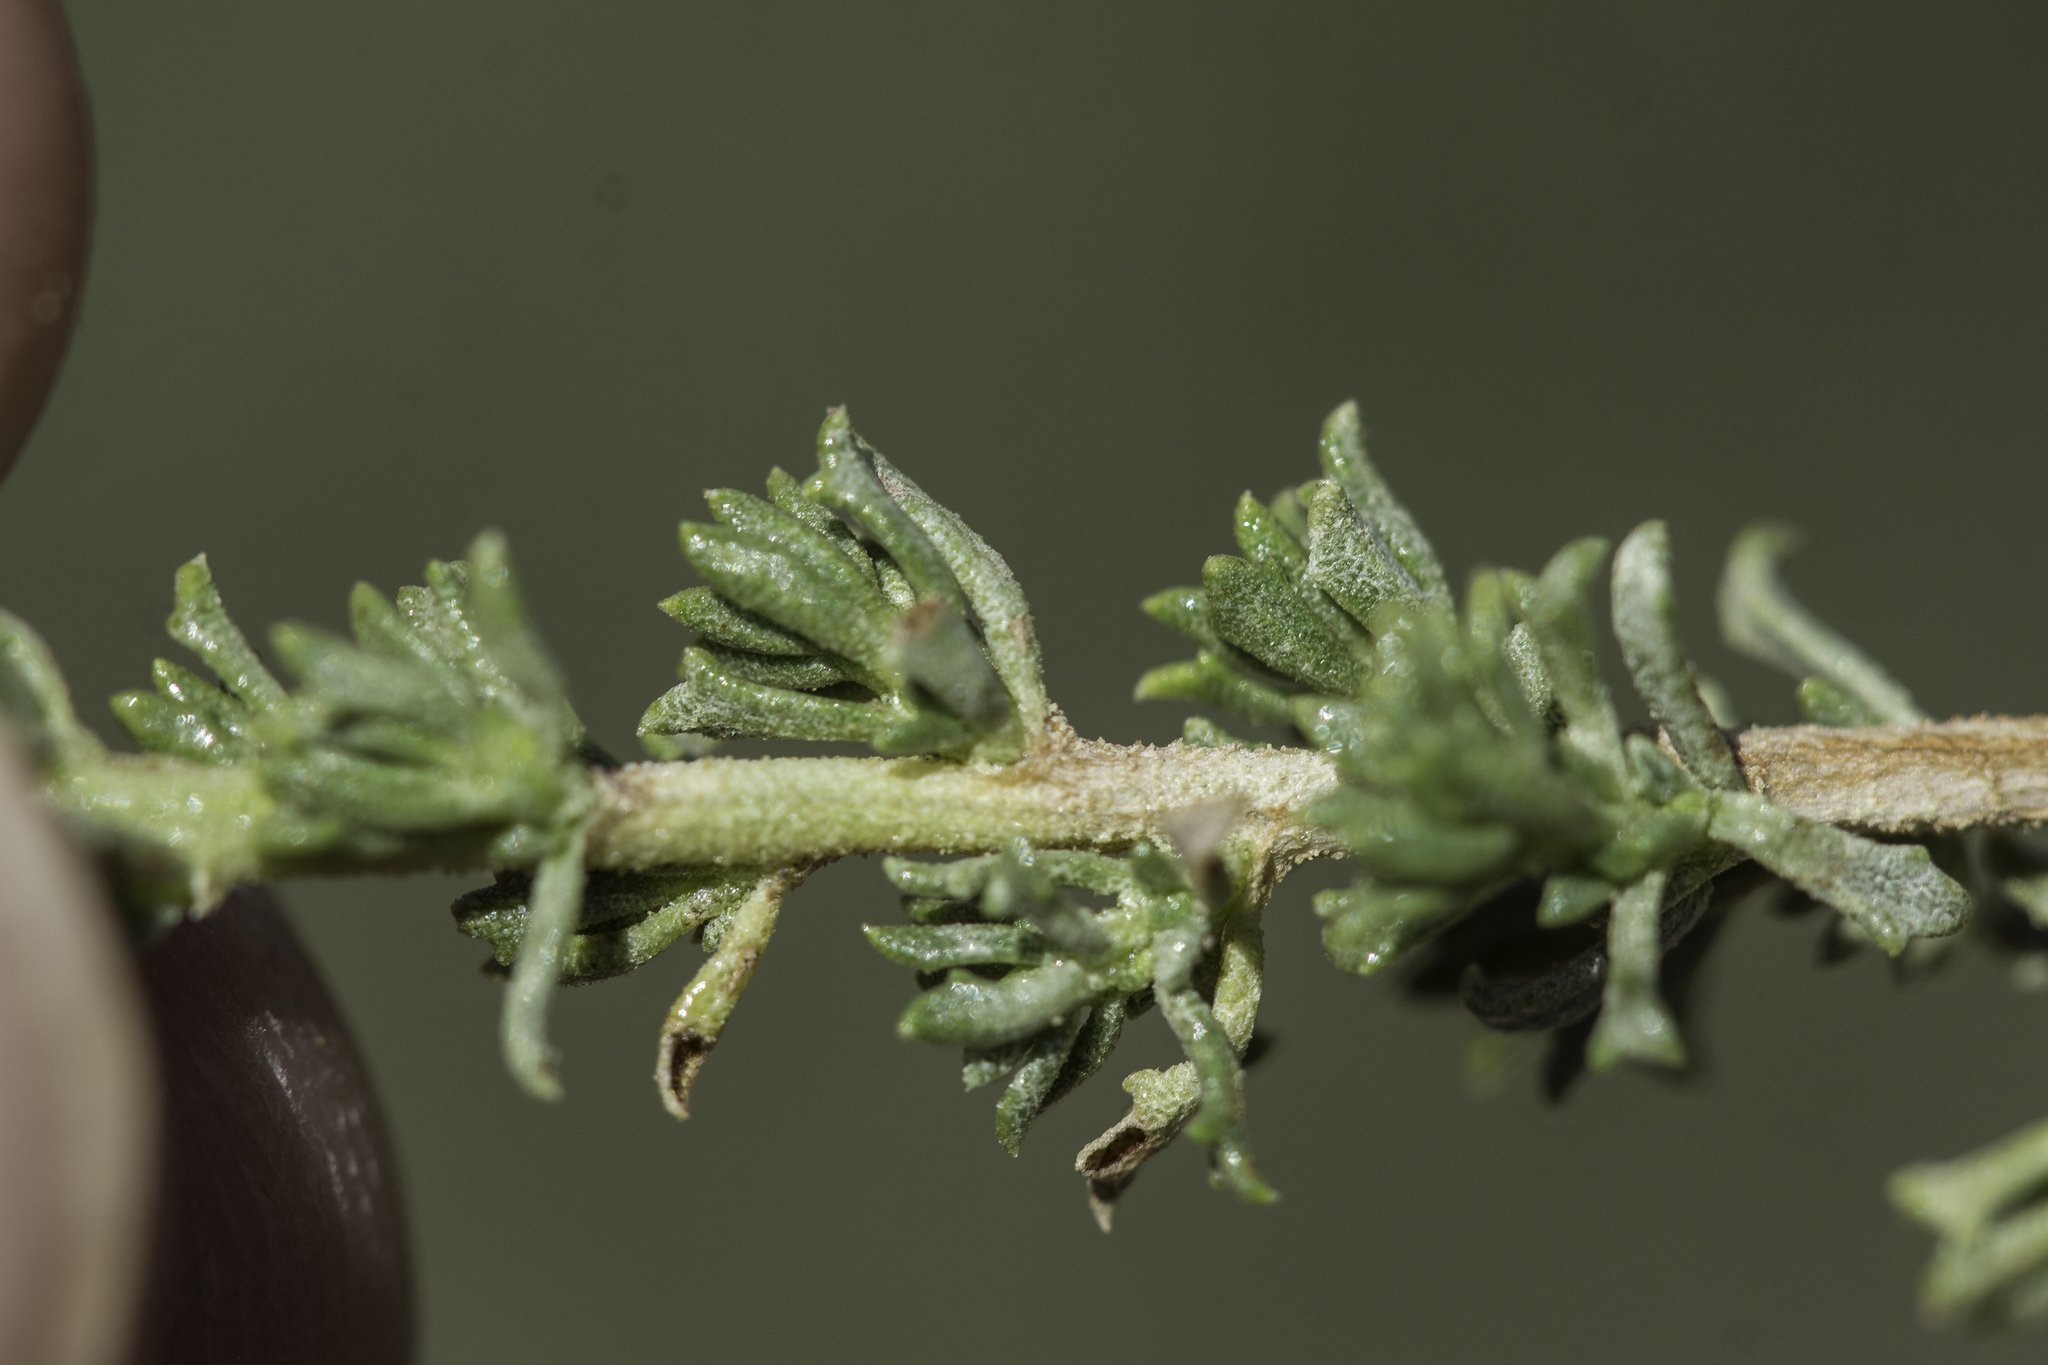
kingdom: Plantae
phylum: Tracheophyta
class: Magnoliopsida
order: Asterales
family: Asteraceae
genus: Baccharis
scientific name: Baccharis pteronioides
